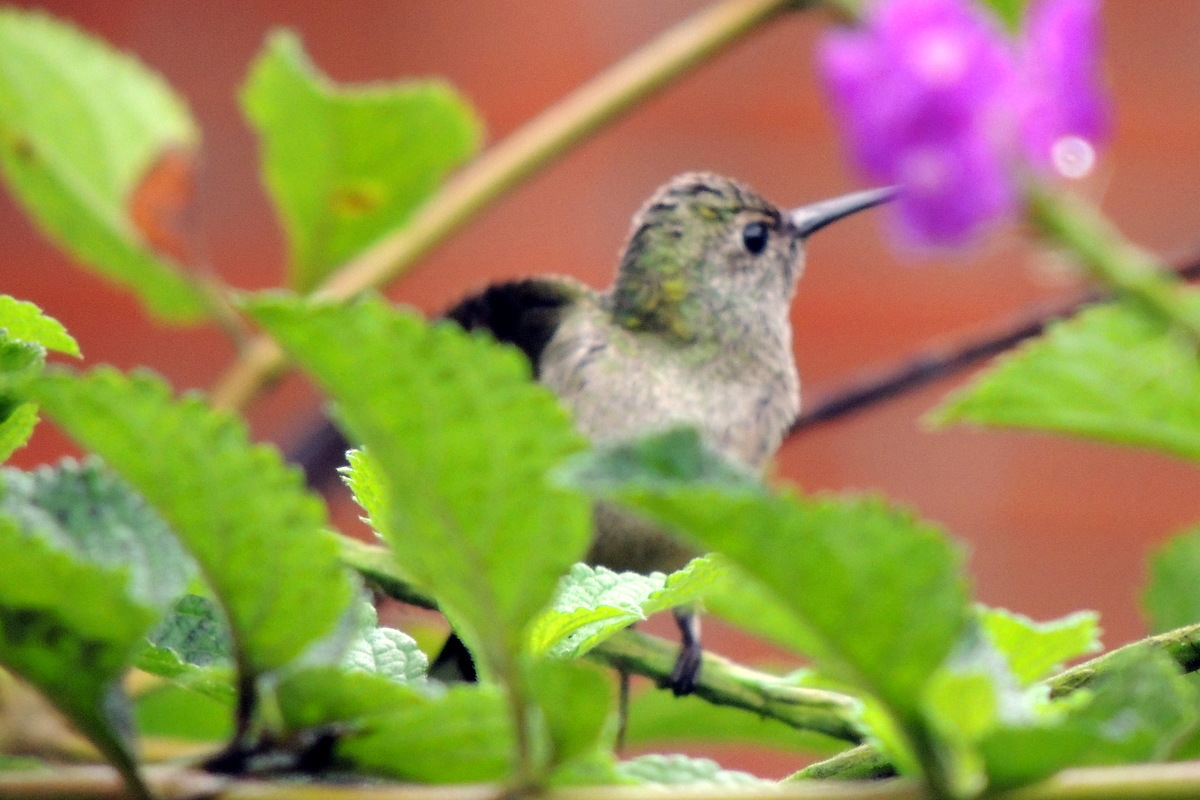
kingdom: Animalia
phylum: Chordata
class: Aves
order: Apodiformes
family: Trochilidae
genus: Phaeochroa
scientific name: Phaeochroa cuvierii
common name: Scaly-breasted hummingbird
